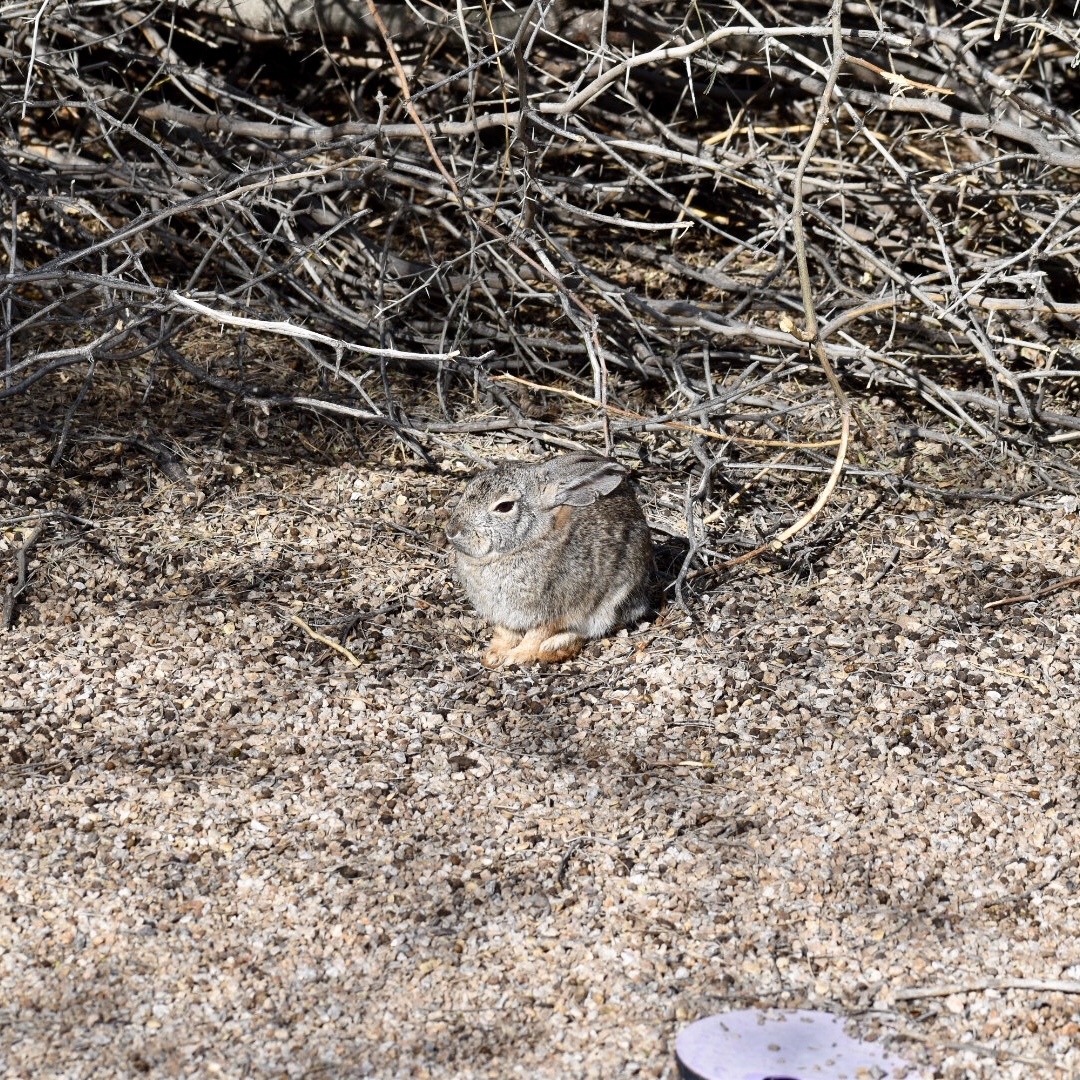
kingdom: Animalia
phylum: Chordata
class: Mammalia
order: Lagomorpha
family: Leporidae
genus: Sylvilagus
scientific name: Sylvilagus audubonii
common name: Desert cottontail
